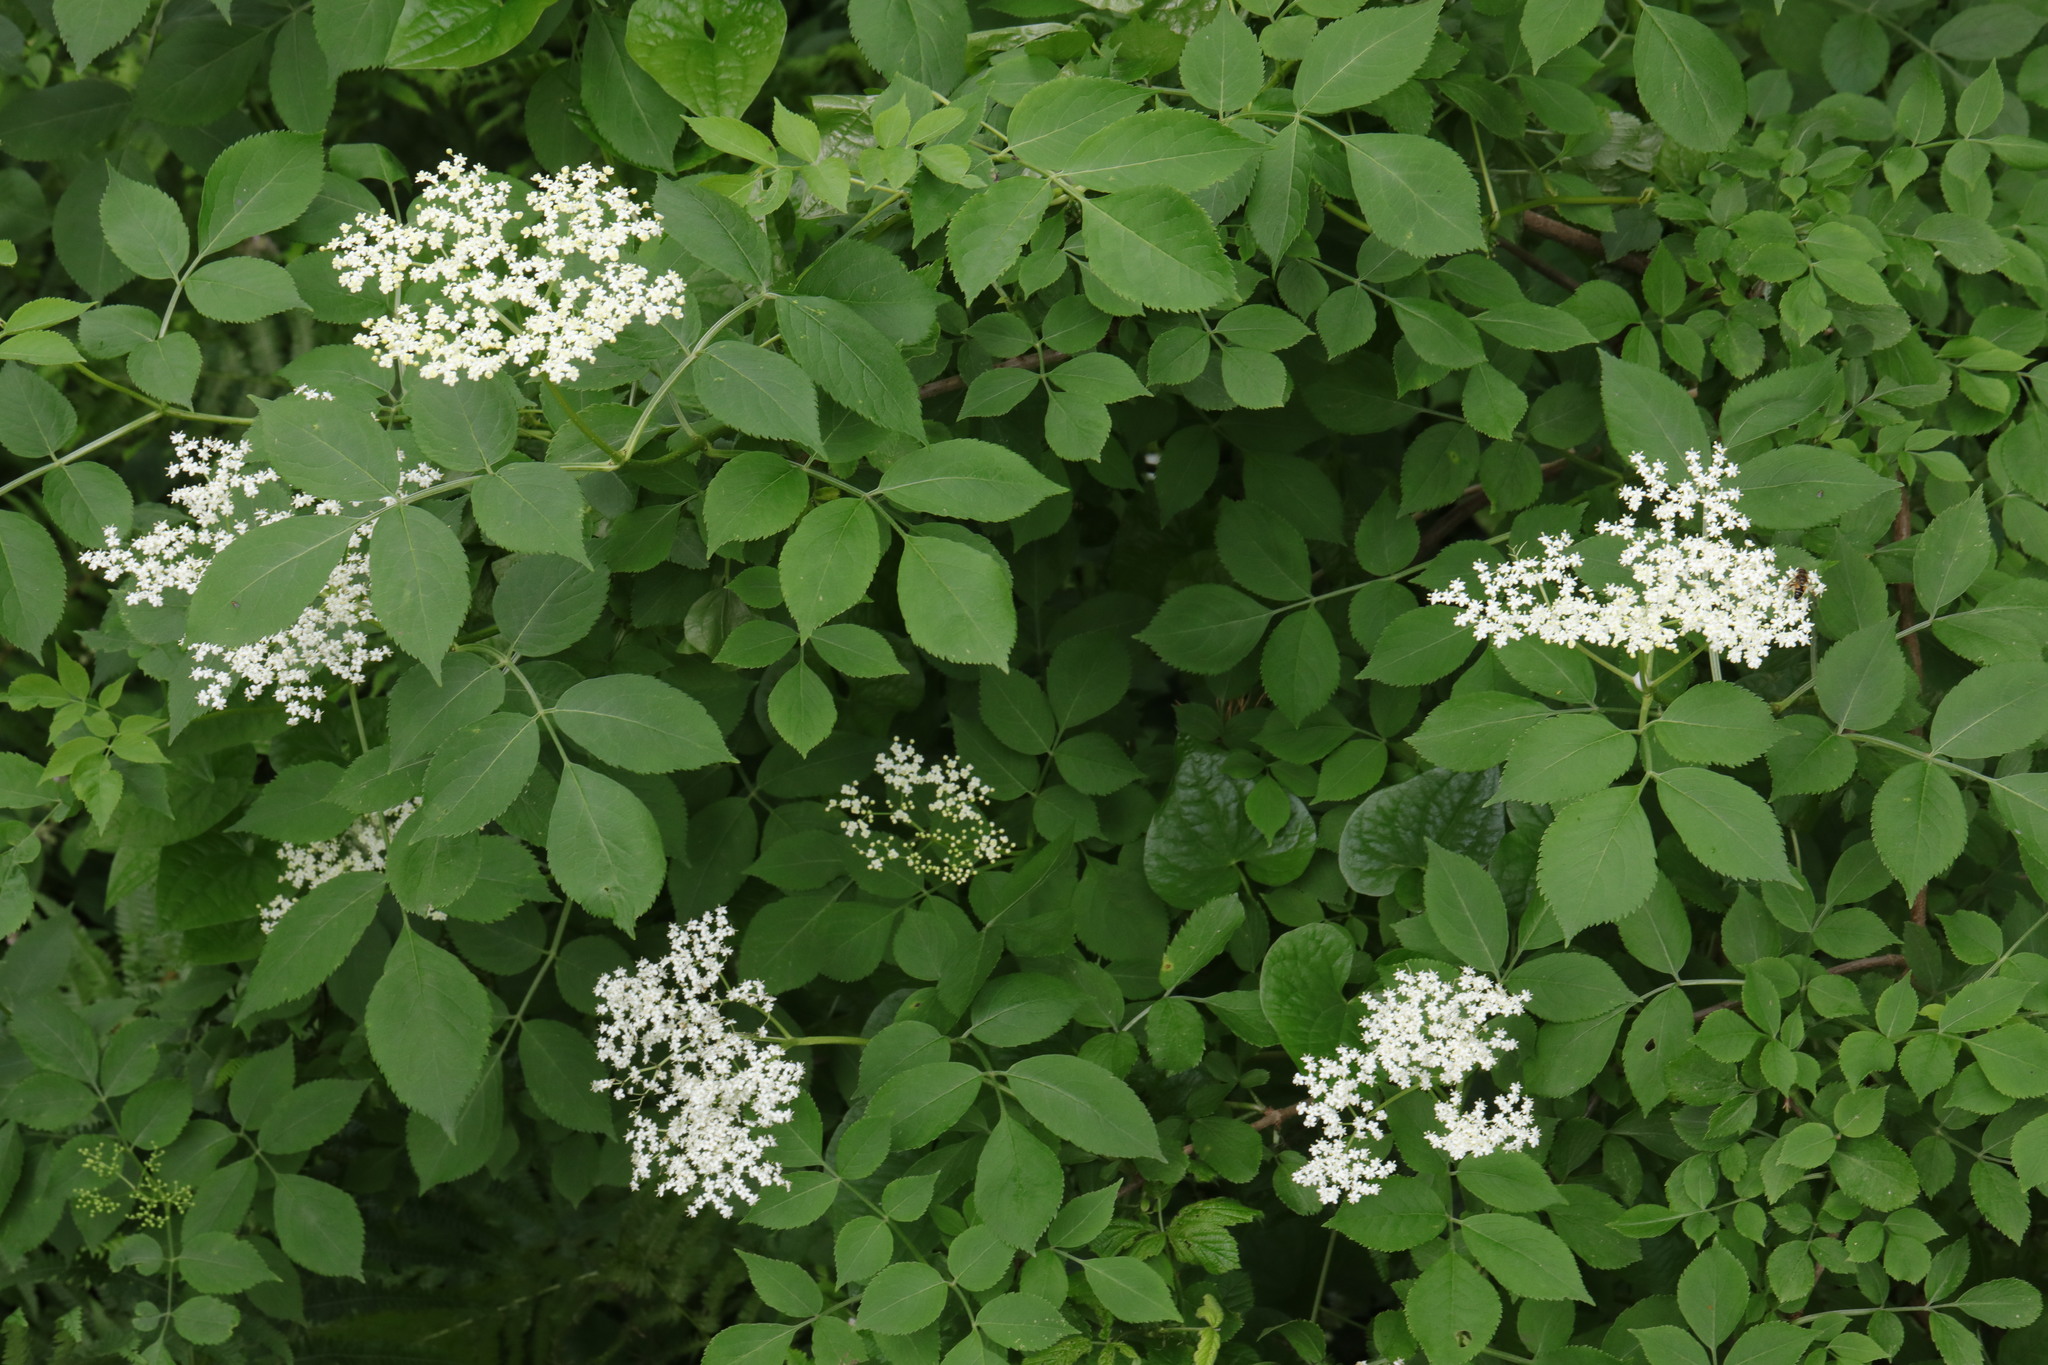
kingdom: Plantae
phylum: Tracheophyta
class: Magnoliopsida
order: Apiales
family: Apiaceae
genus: Aegopodium
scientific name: Aegopodium podagraria
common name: Ground-elder
